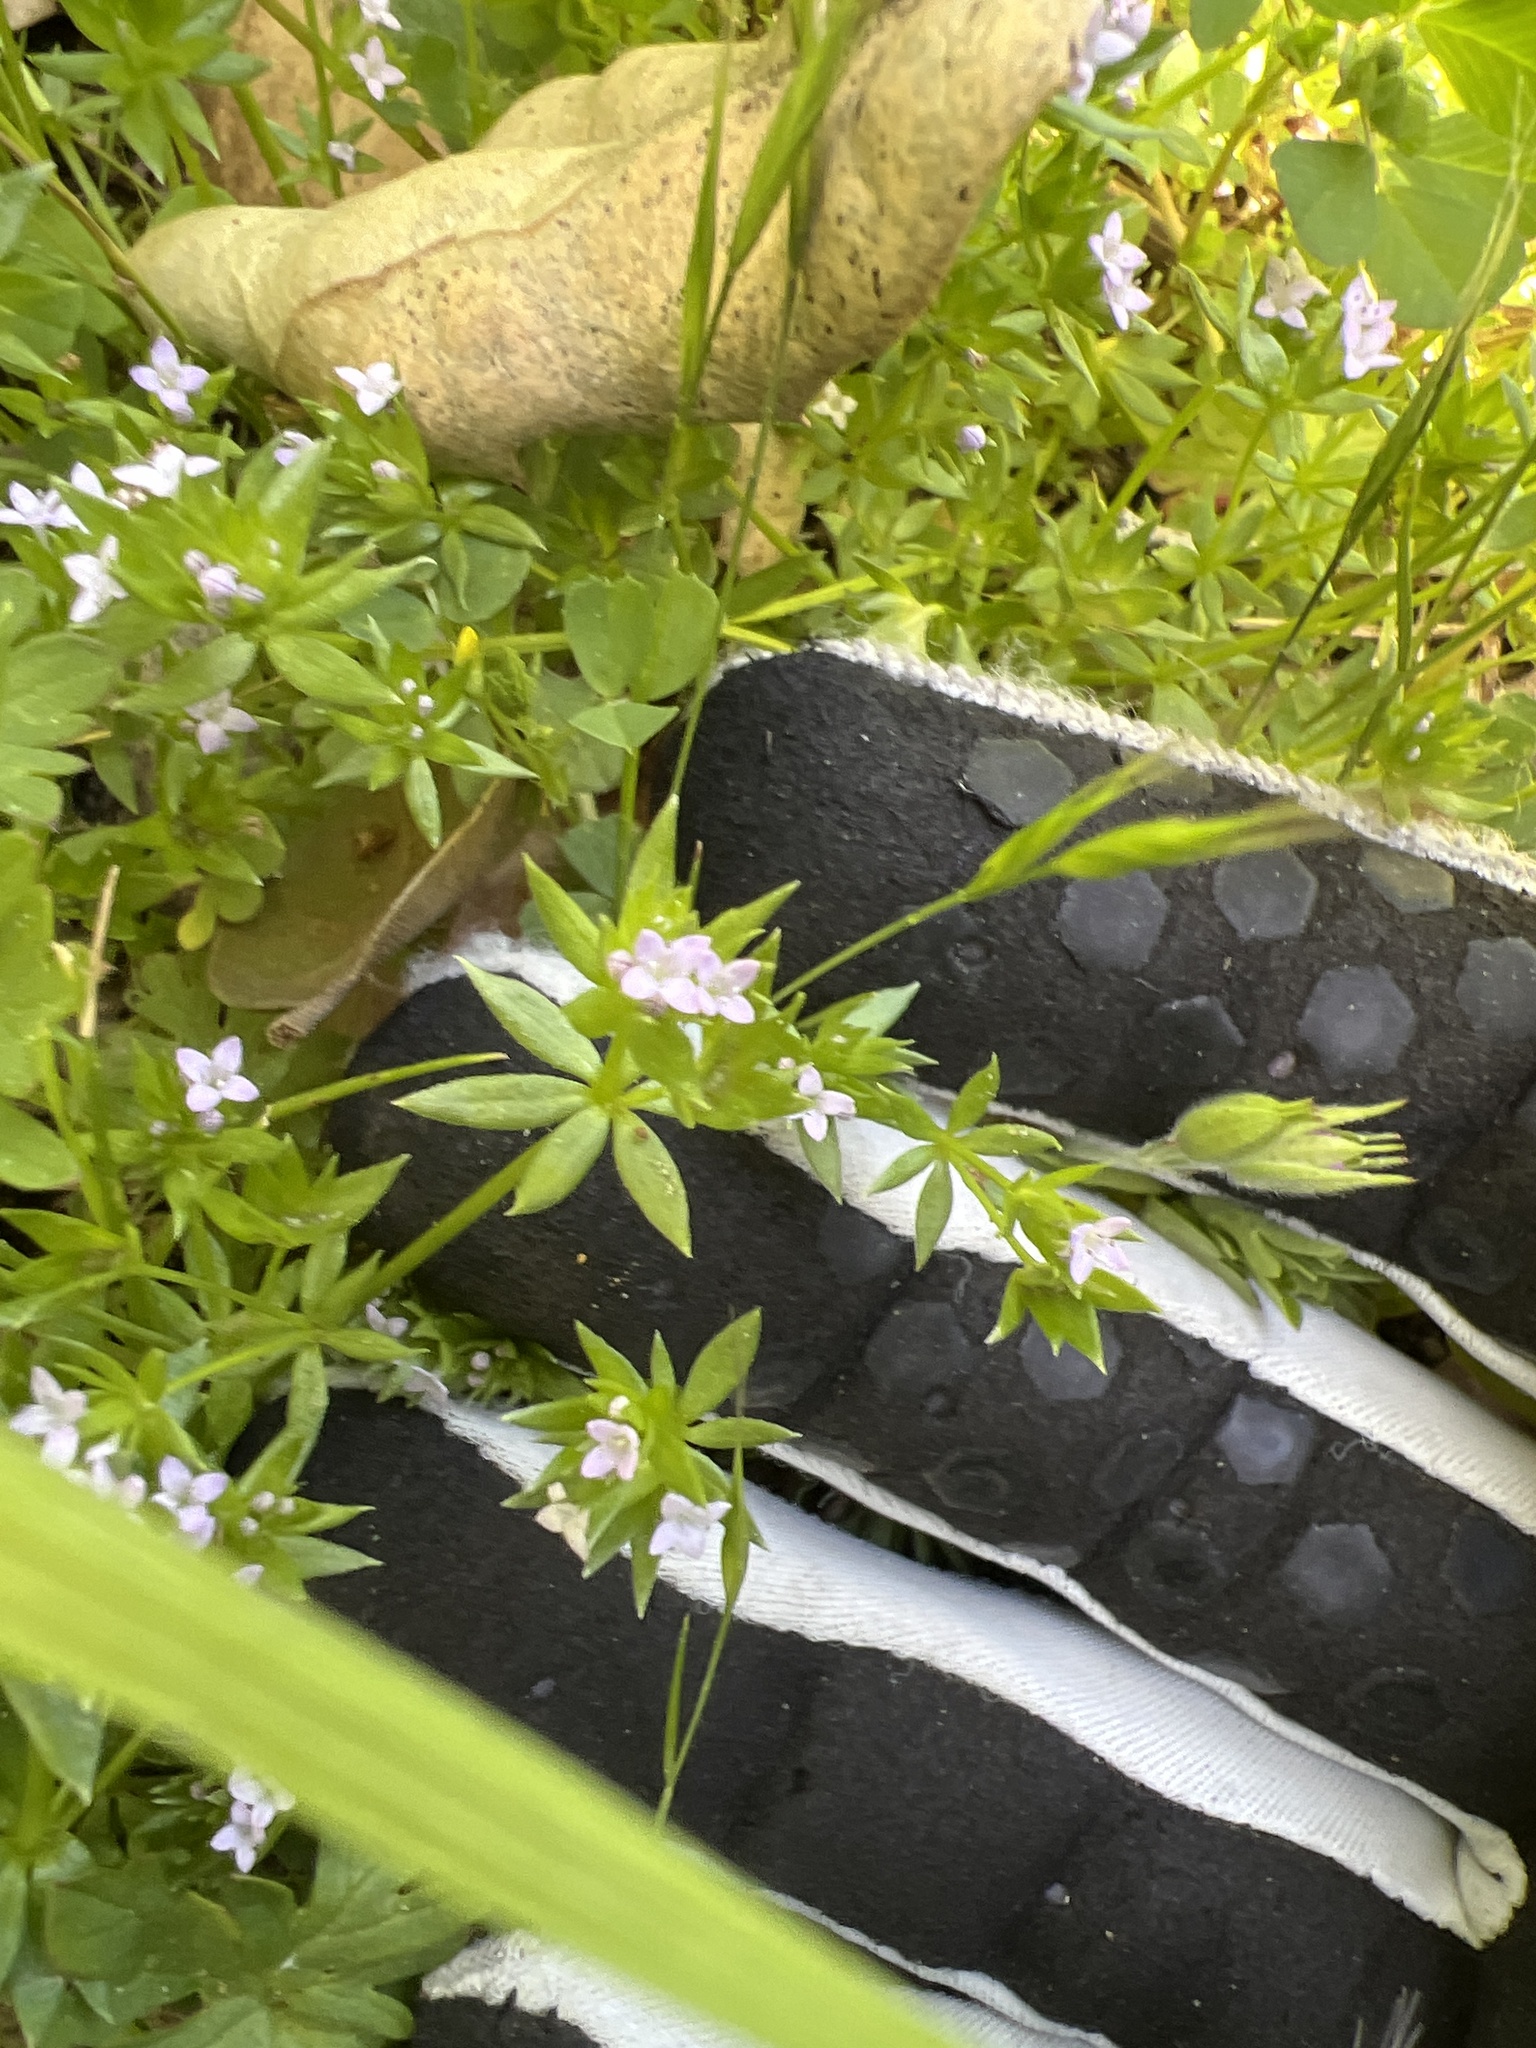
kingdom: Plantae
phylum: Tracheophyta
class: Magnoliopsida
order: Gentianales
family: Rubiaceae
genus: Sherardia
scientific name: Sherardia arvensis
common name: Field madder
